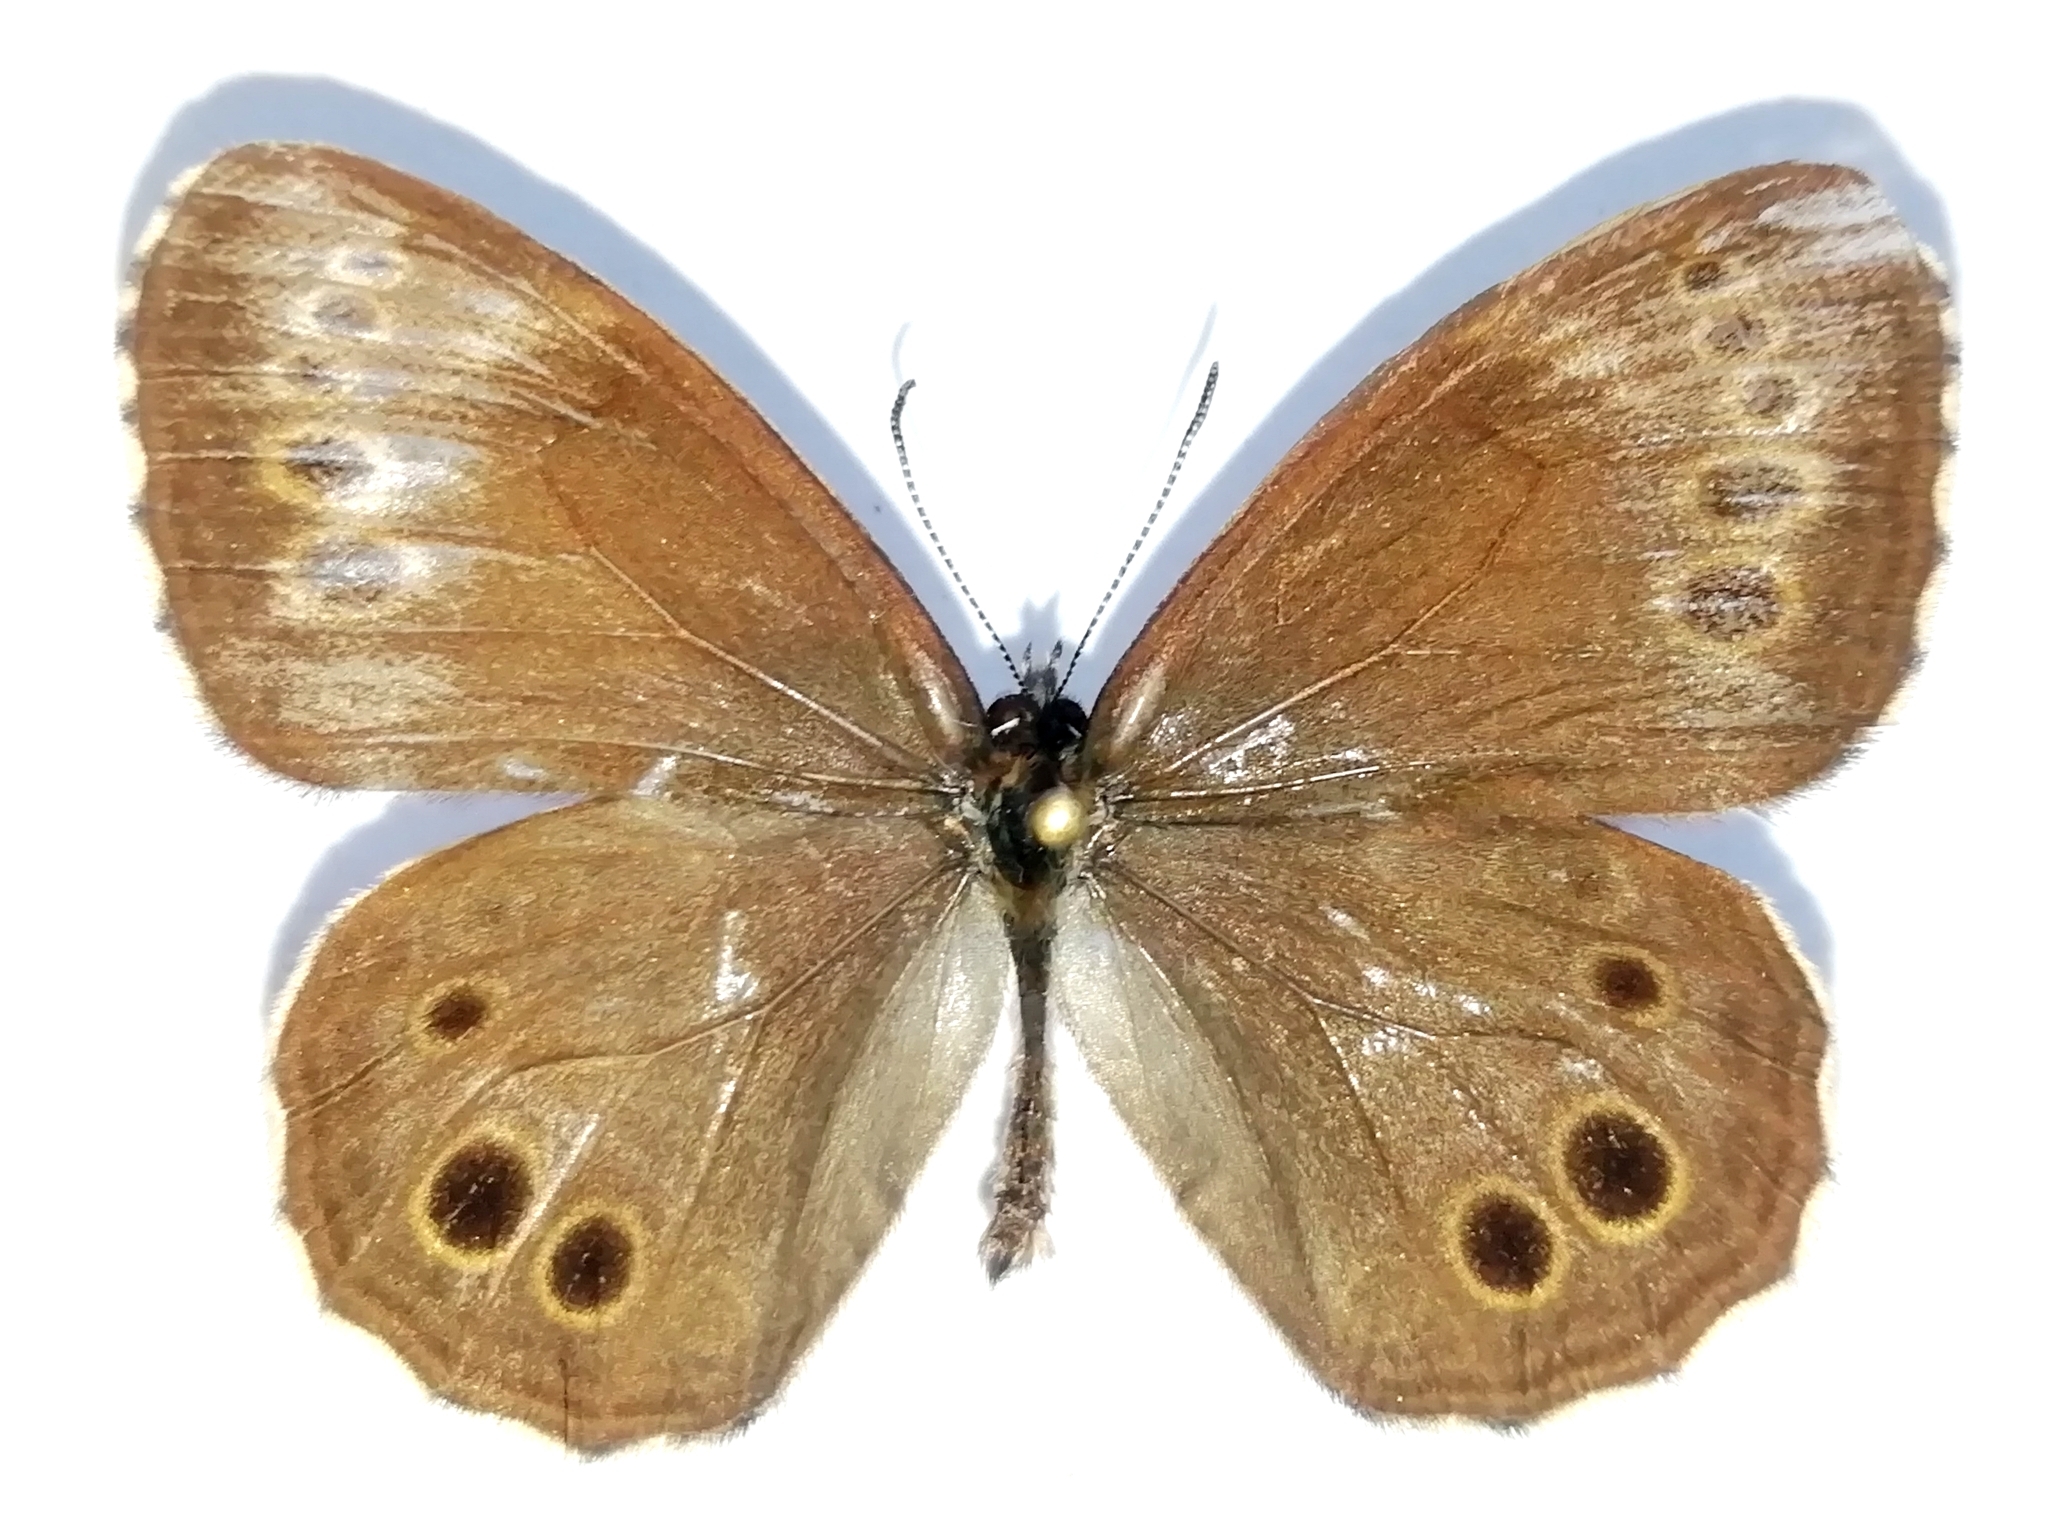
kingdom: Animalia
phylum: Arthropoda
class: Insecta
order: Lepidoptera
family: Nymphalidae
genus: Pararge
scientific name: Pararge Lopinga achine
